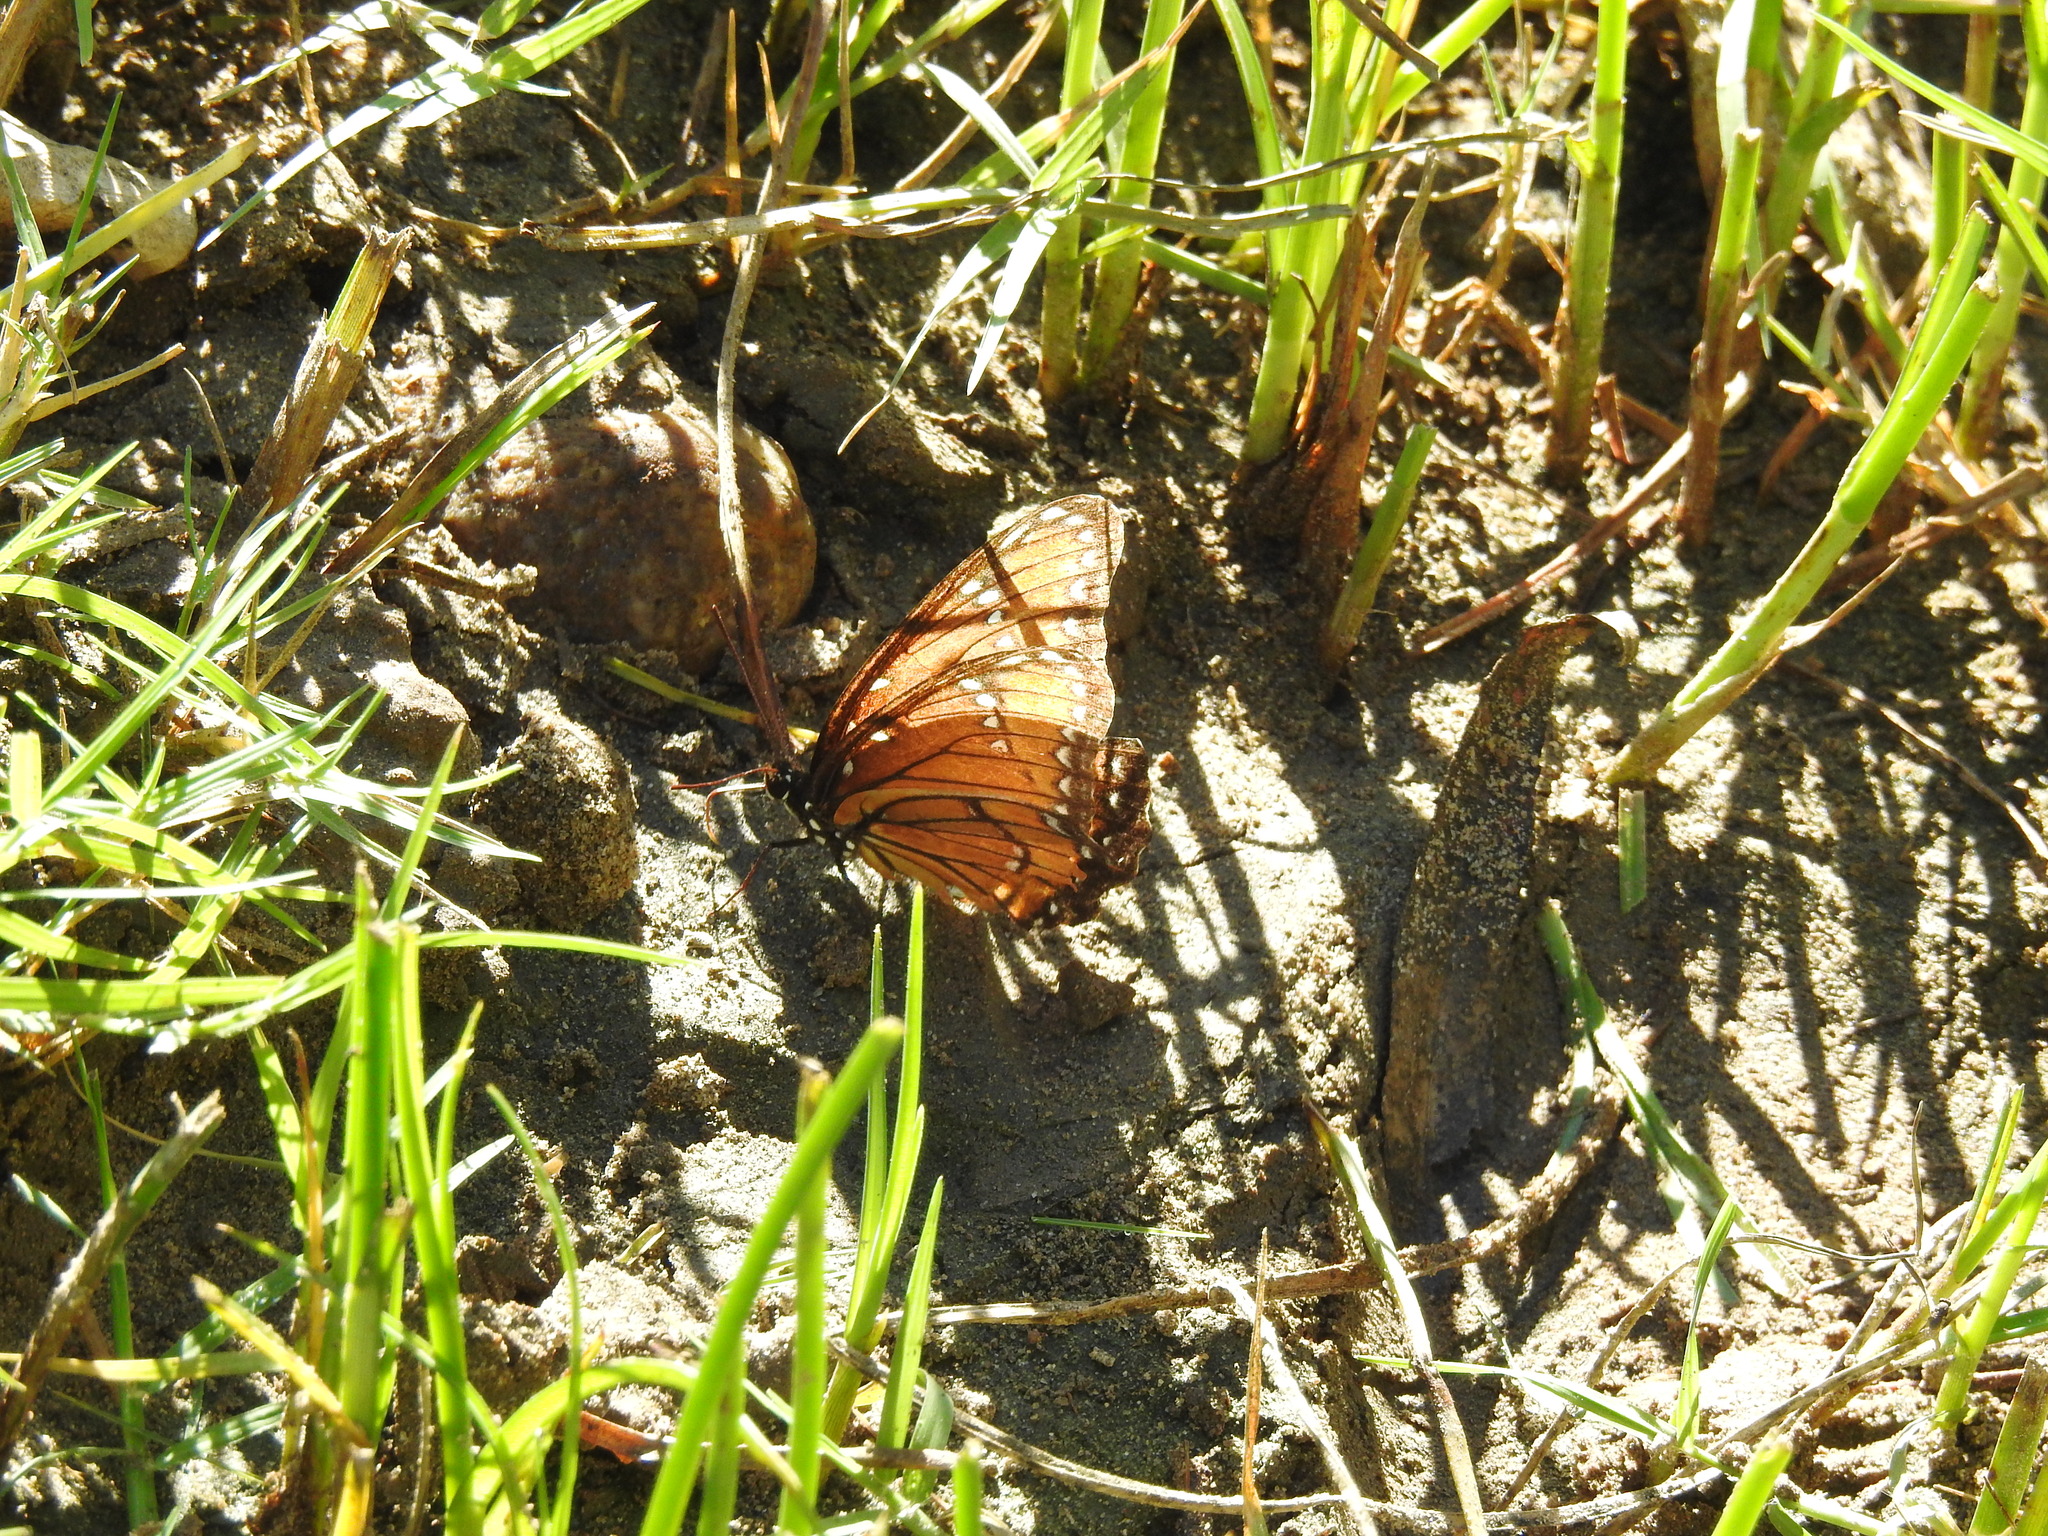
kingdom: Animalia
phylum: Arthropoda
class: Insecta
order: Lepidoptera
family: Nymphalidae
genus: Limenitis
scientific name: Limenitis archippus
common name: Viceroy
